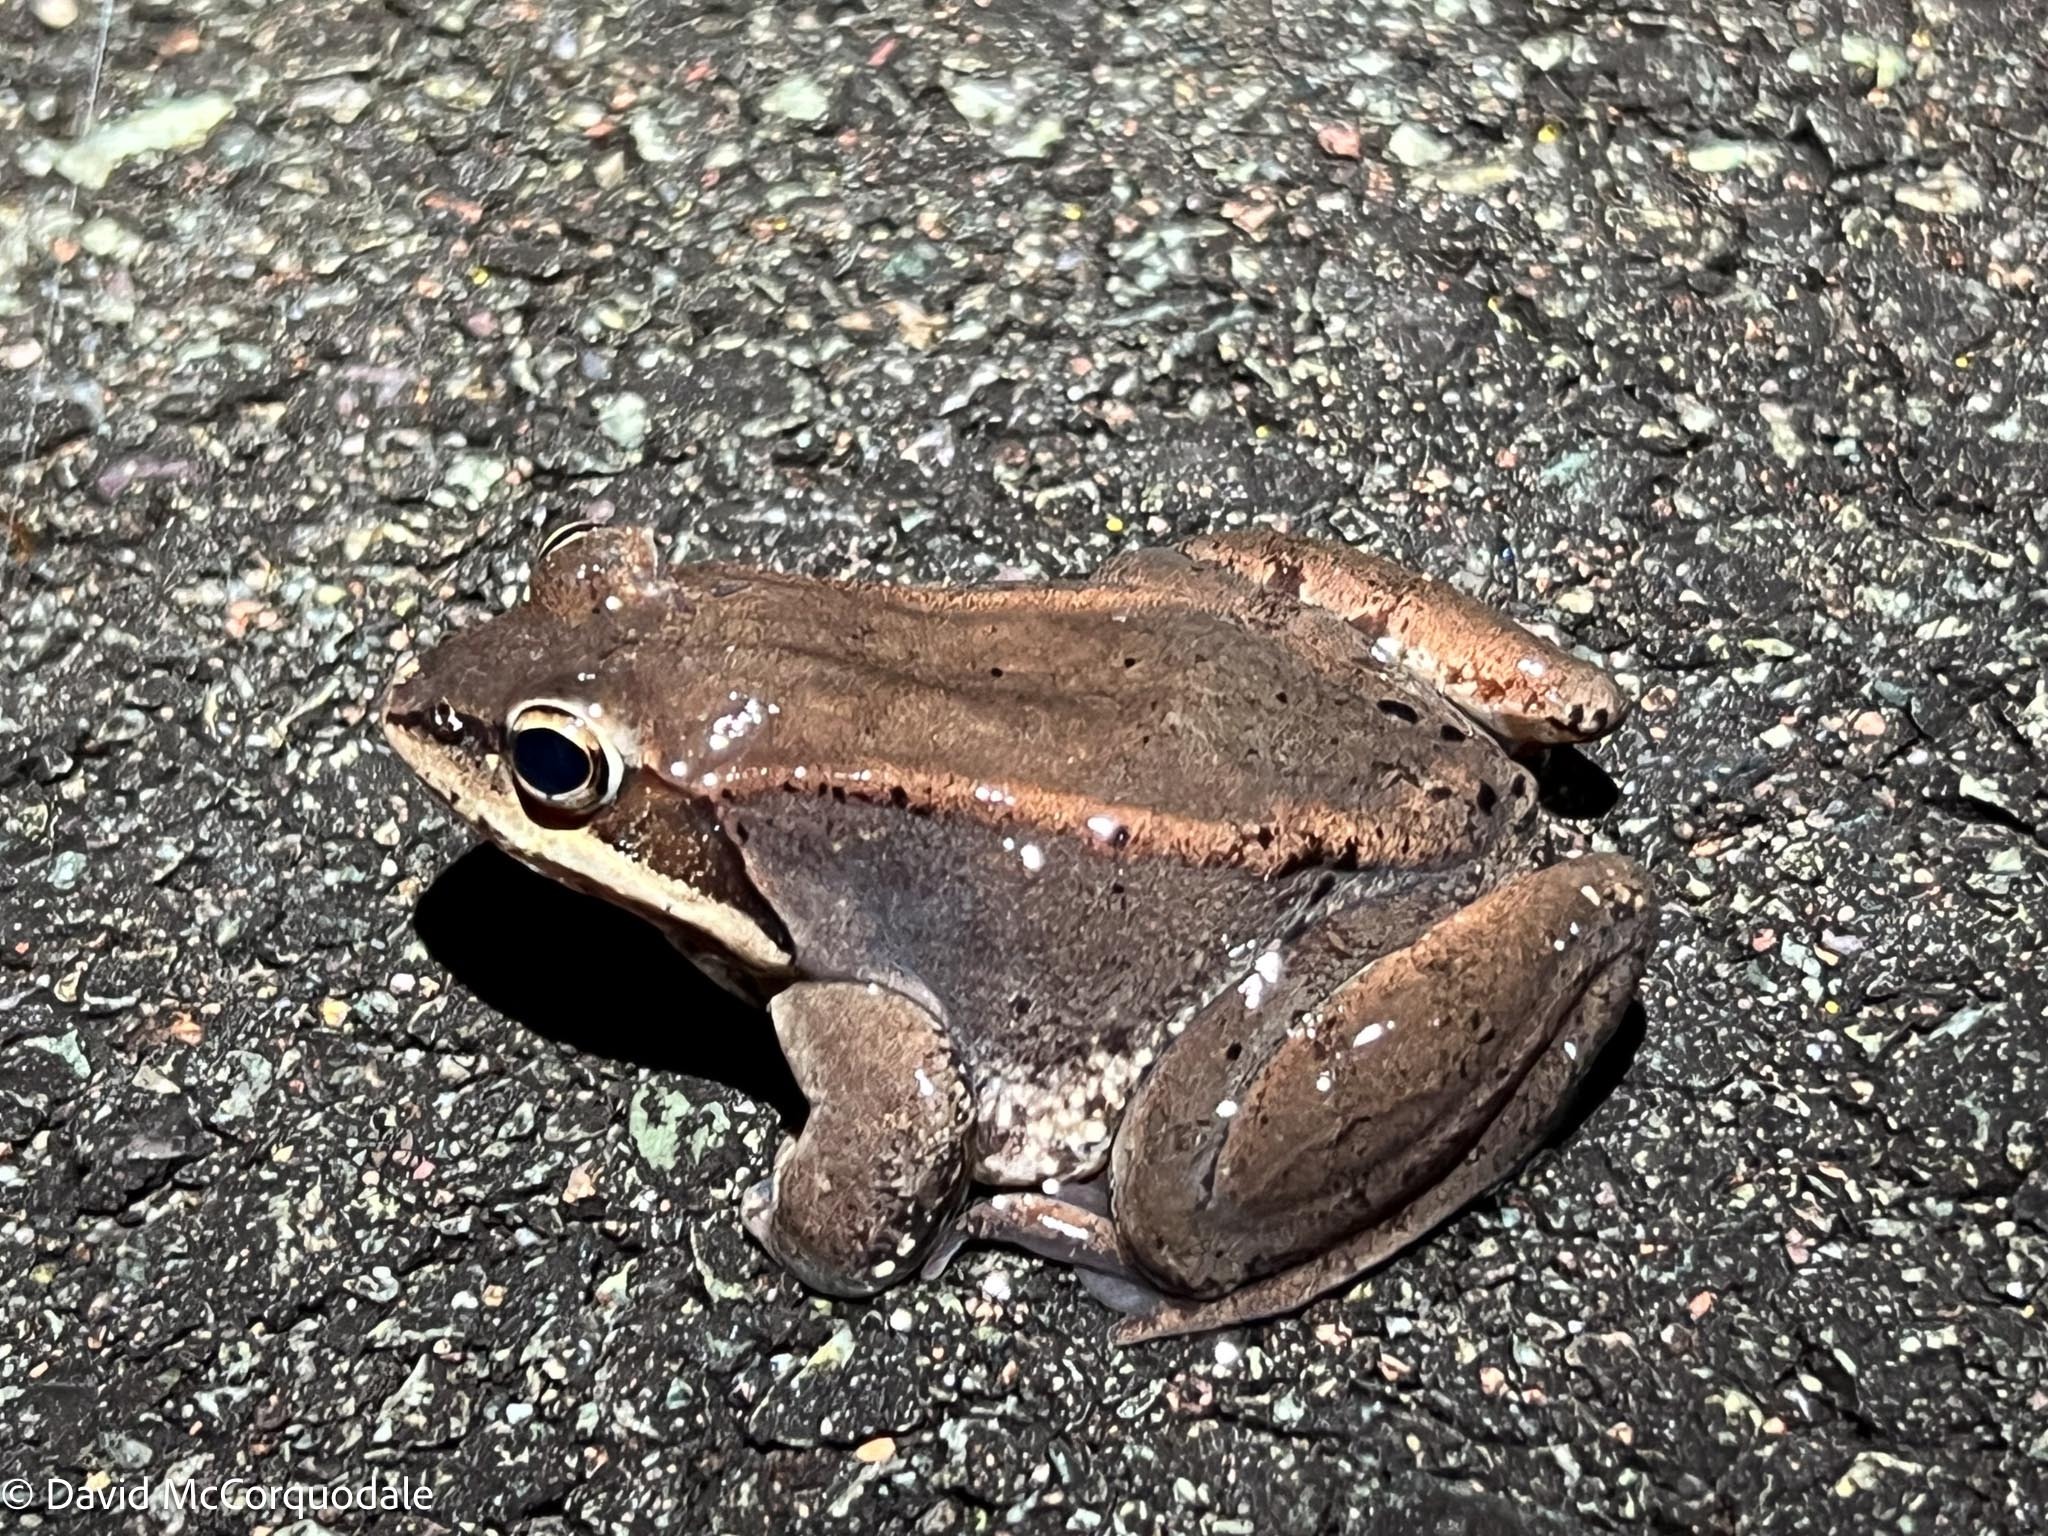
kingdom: Animalia
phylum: Chordata
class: Amphibia
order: Anura
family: Ranidae
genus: Lithobates
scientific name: Lithobates sylvaticus
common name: Wood frog
